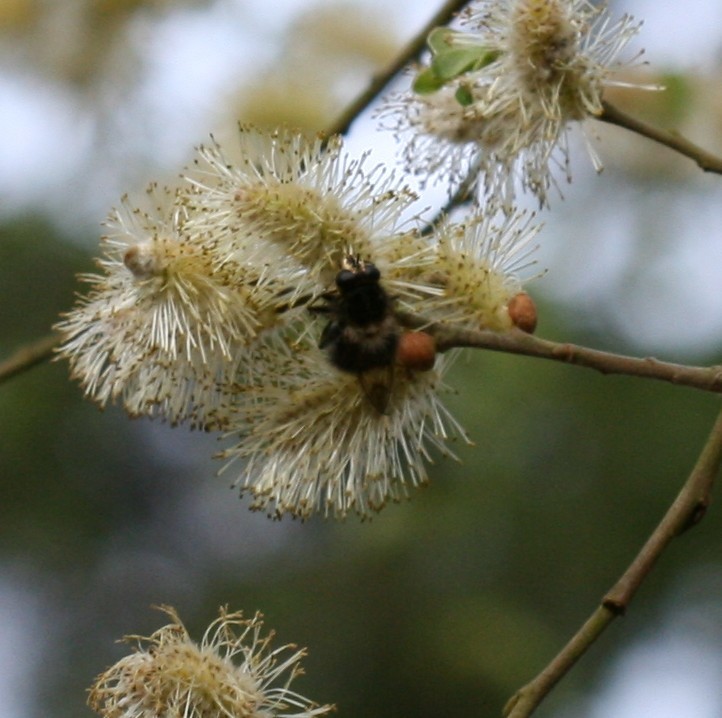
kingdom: Animalia
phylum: Arthropoda
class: Insecta
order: Diptera
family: Syrphidae
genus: Criorhina
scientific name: Criorhina ranunculi
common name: Large bear hoverfly
